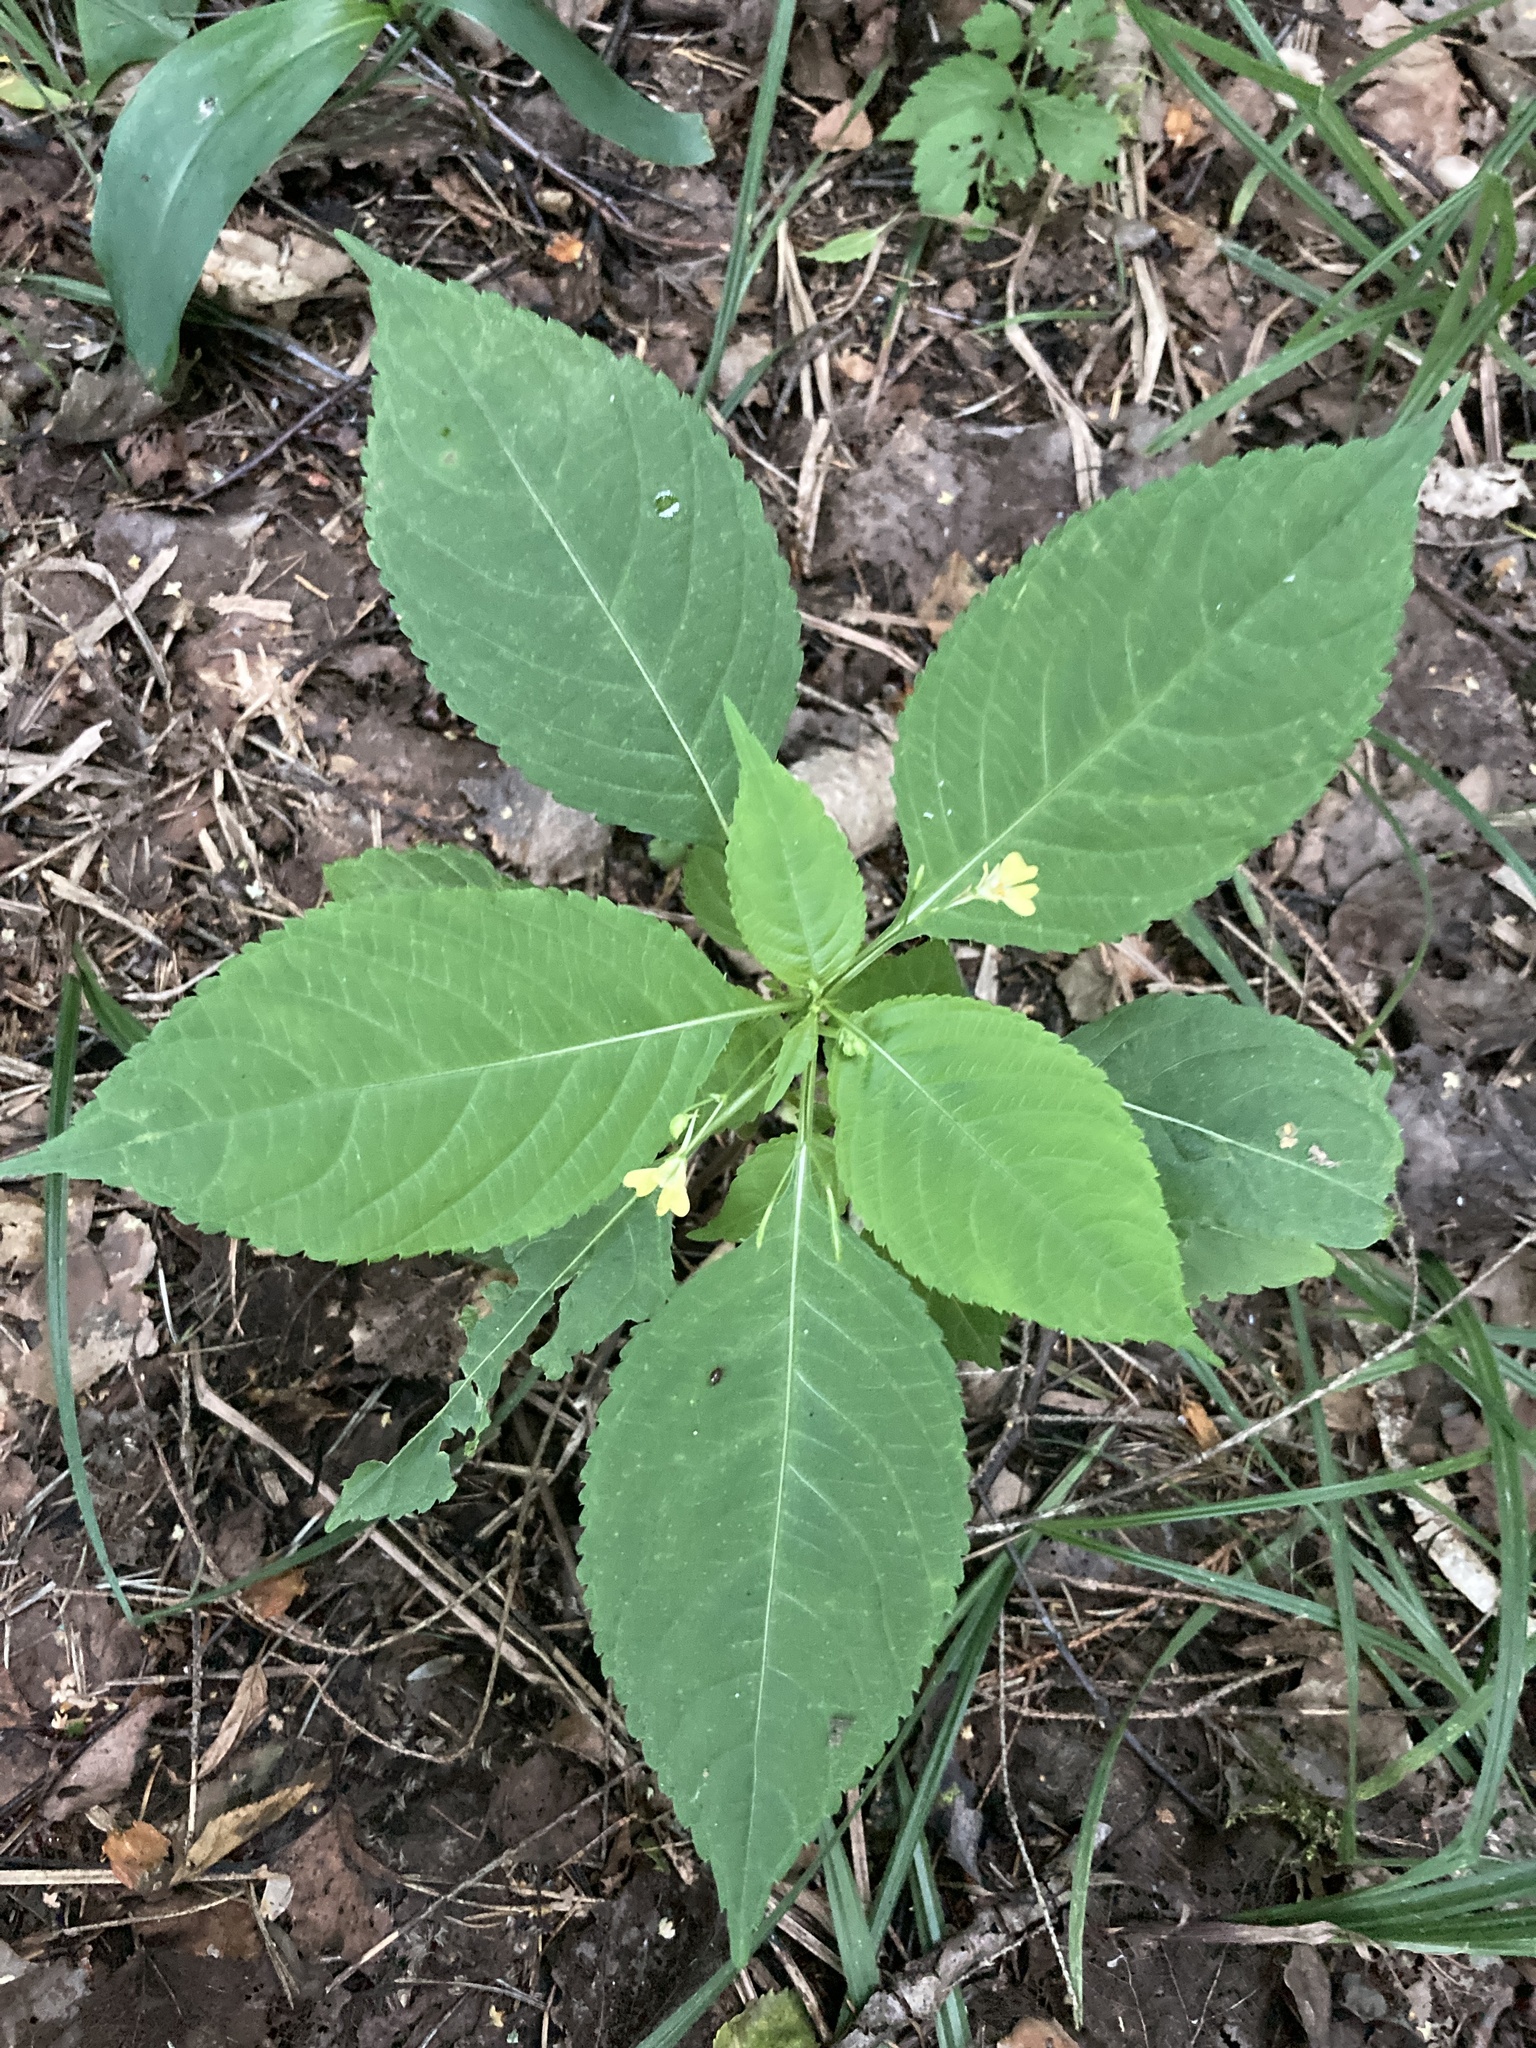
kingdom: Plantae
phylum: Tracheophyta
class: Magnoliopsida
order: Ericales
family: Balsaminaceae
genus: Impatiens
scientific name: Impatiens parviflora
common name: Small balsam
